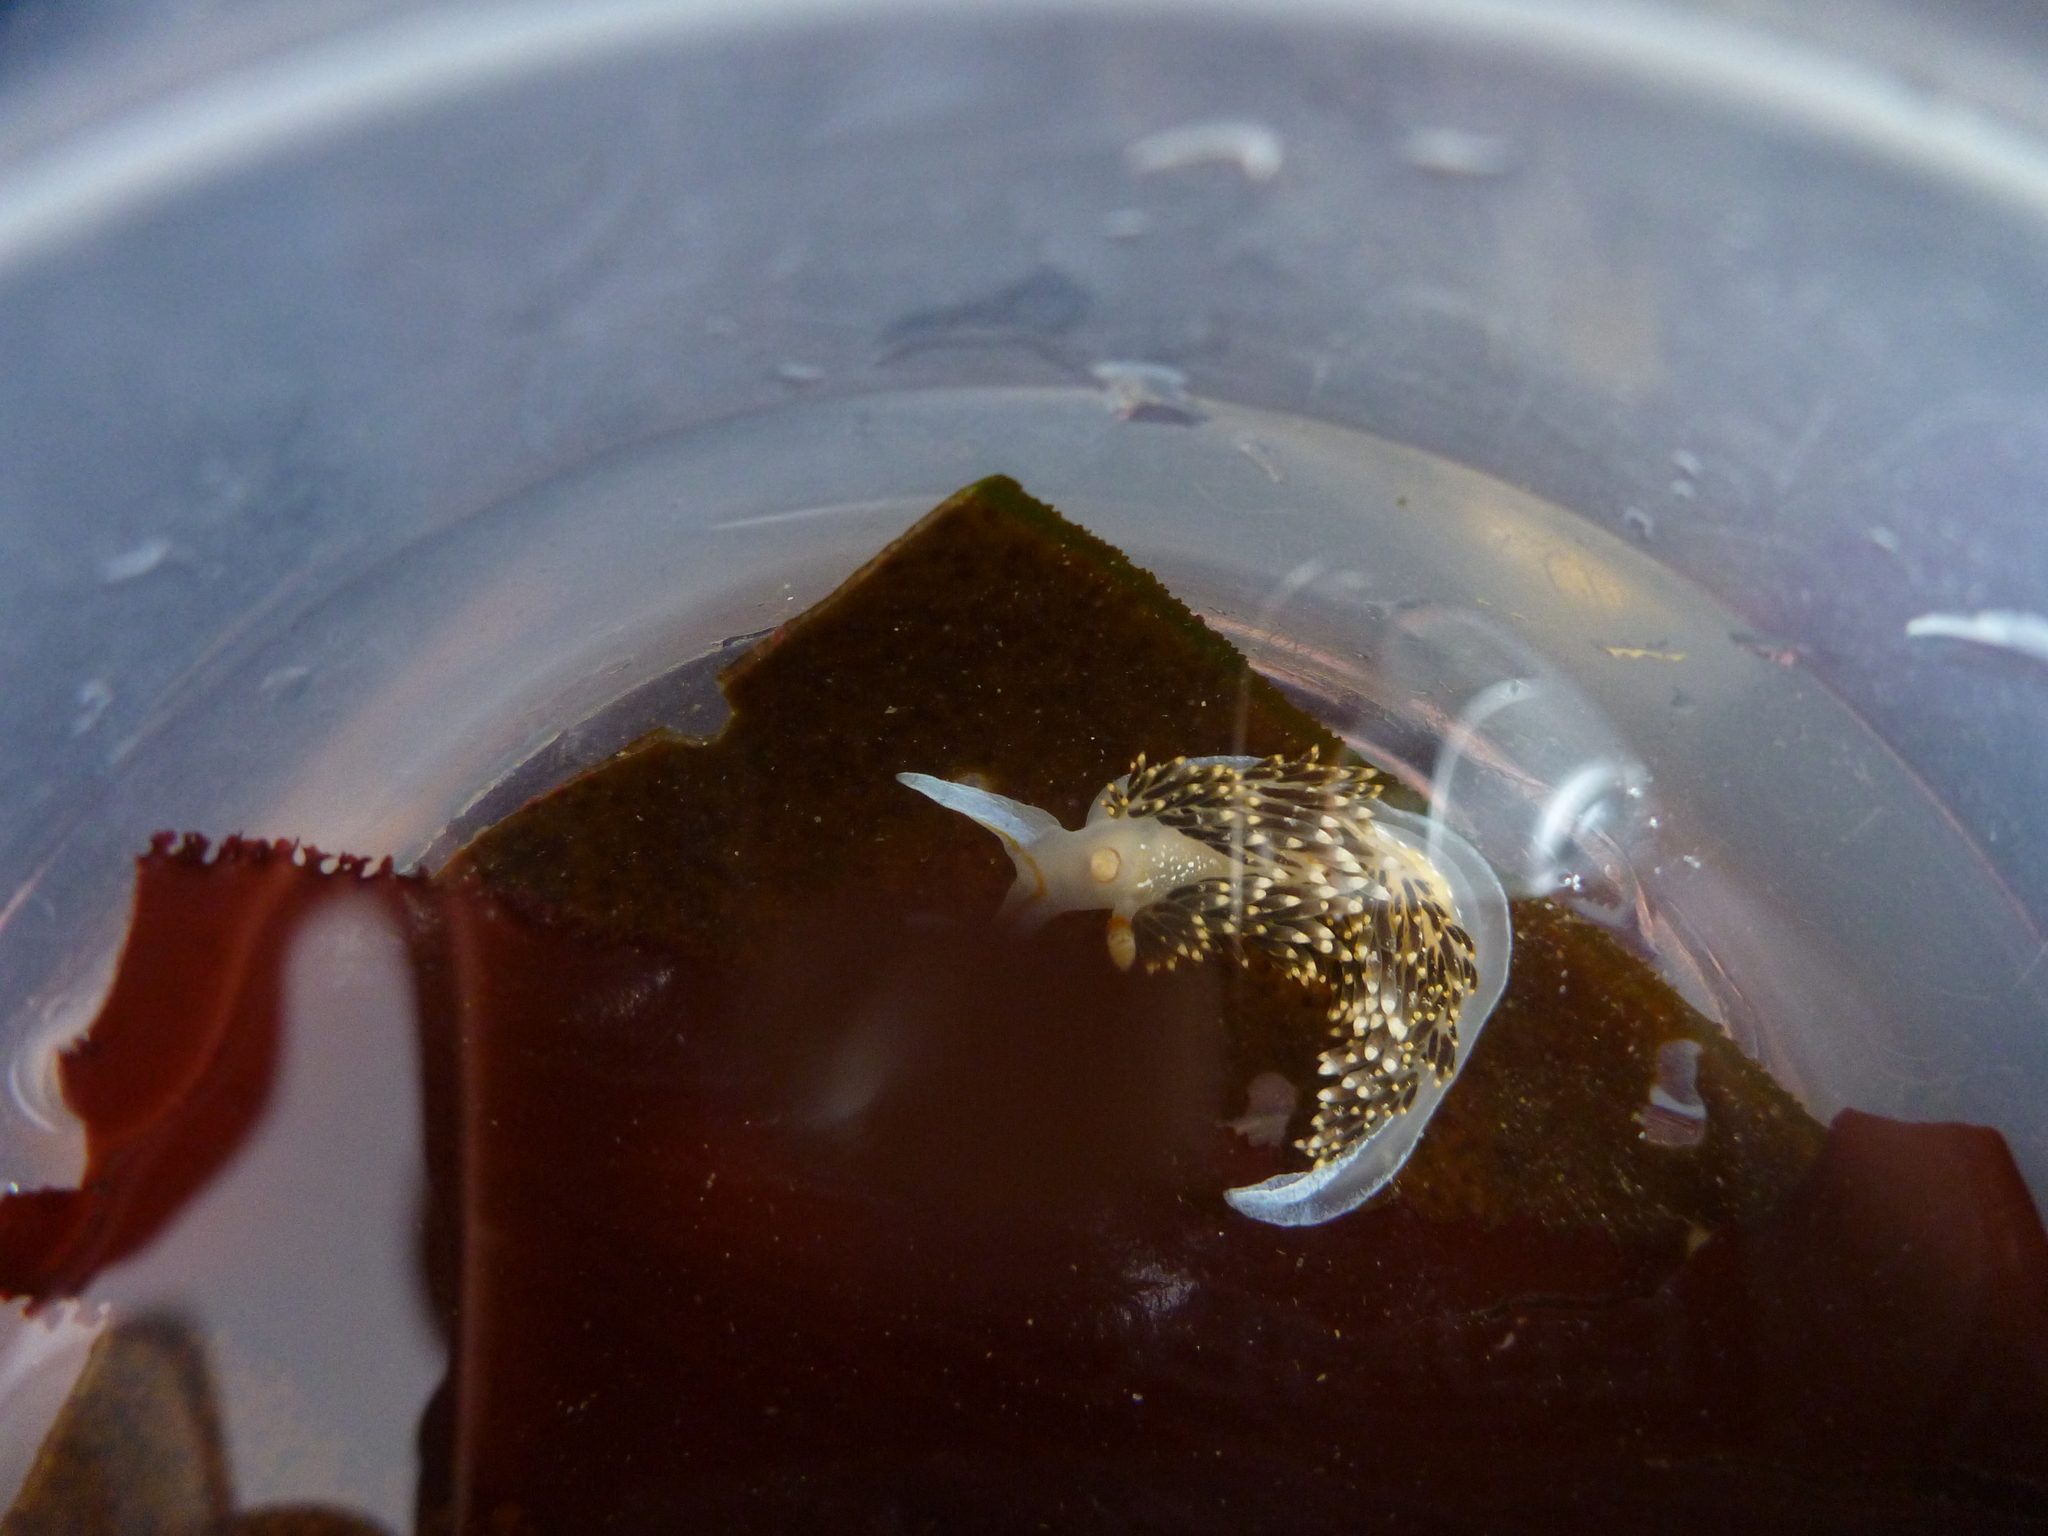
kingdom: Animalia
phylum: Mollusca
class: Gastropoda
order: Nudibranchia
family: Facelinidae
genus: Phidiana
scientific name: Phidiana hiltoni
